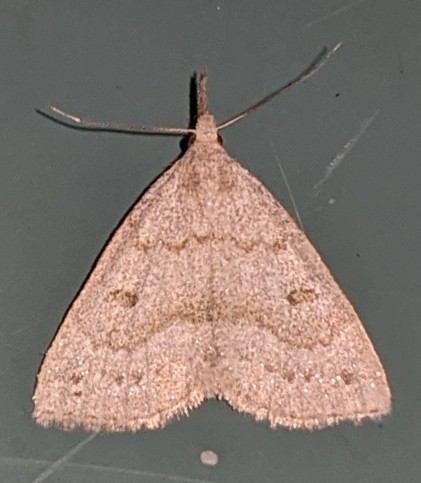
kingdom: Animalia
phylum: Arthropoda
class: Insecta
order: Lepidoptera
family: Erebidae
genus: Macrochilo
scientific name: Macrochilo morbidalis
